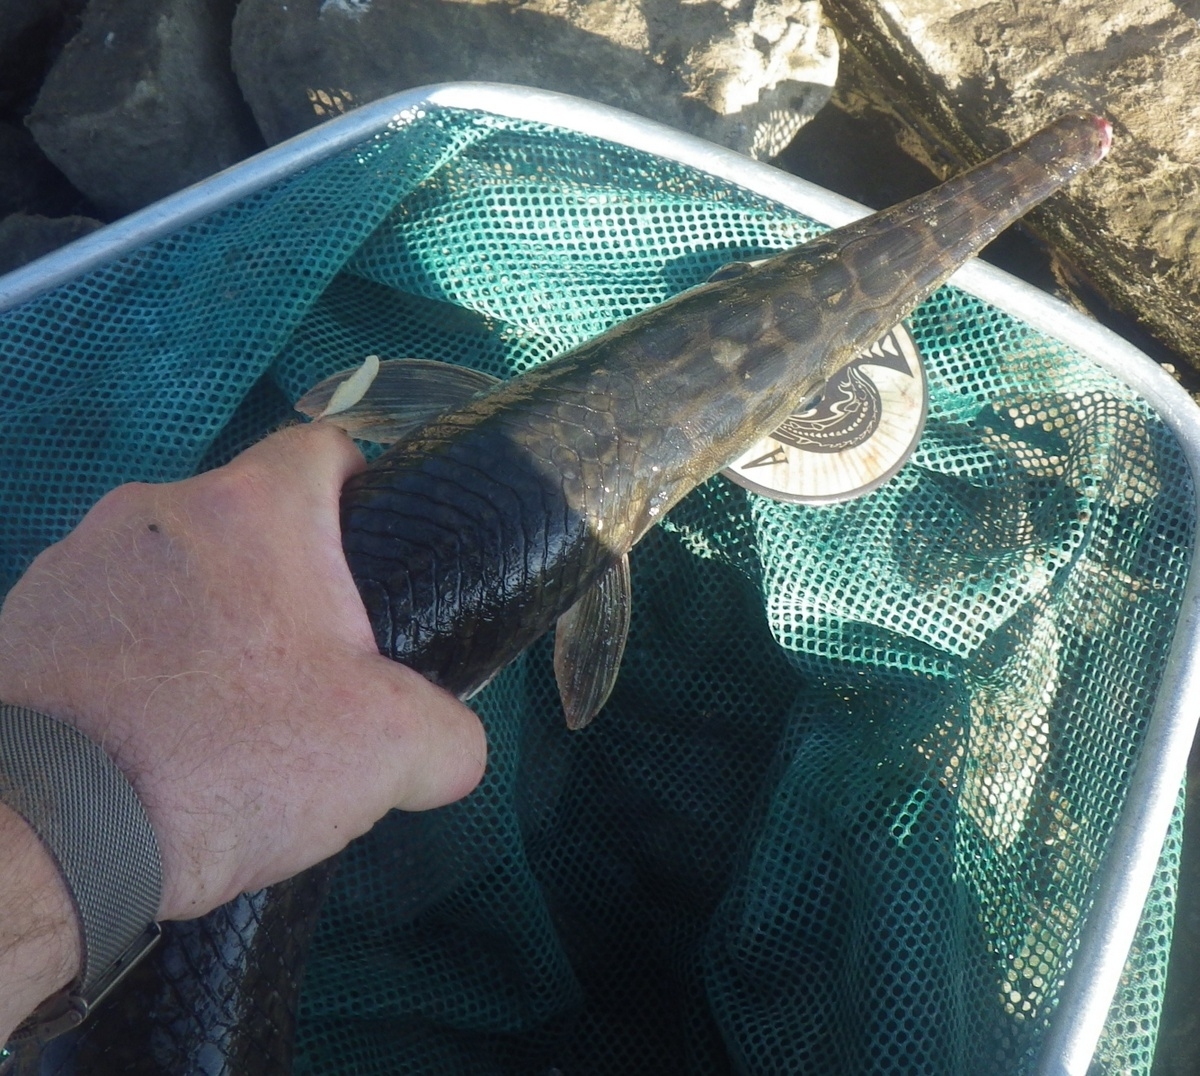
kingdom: Animalia
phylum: Chordata
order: Lepisosteiformes
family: Lepisosteidae
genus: Lepisosteus
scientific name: Lepisosteus oculatus
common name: Spotted gar
